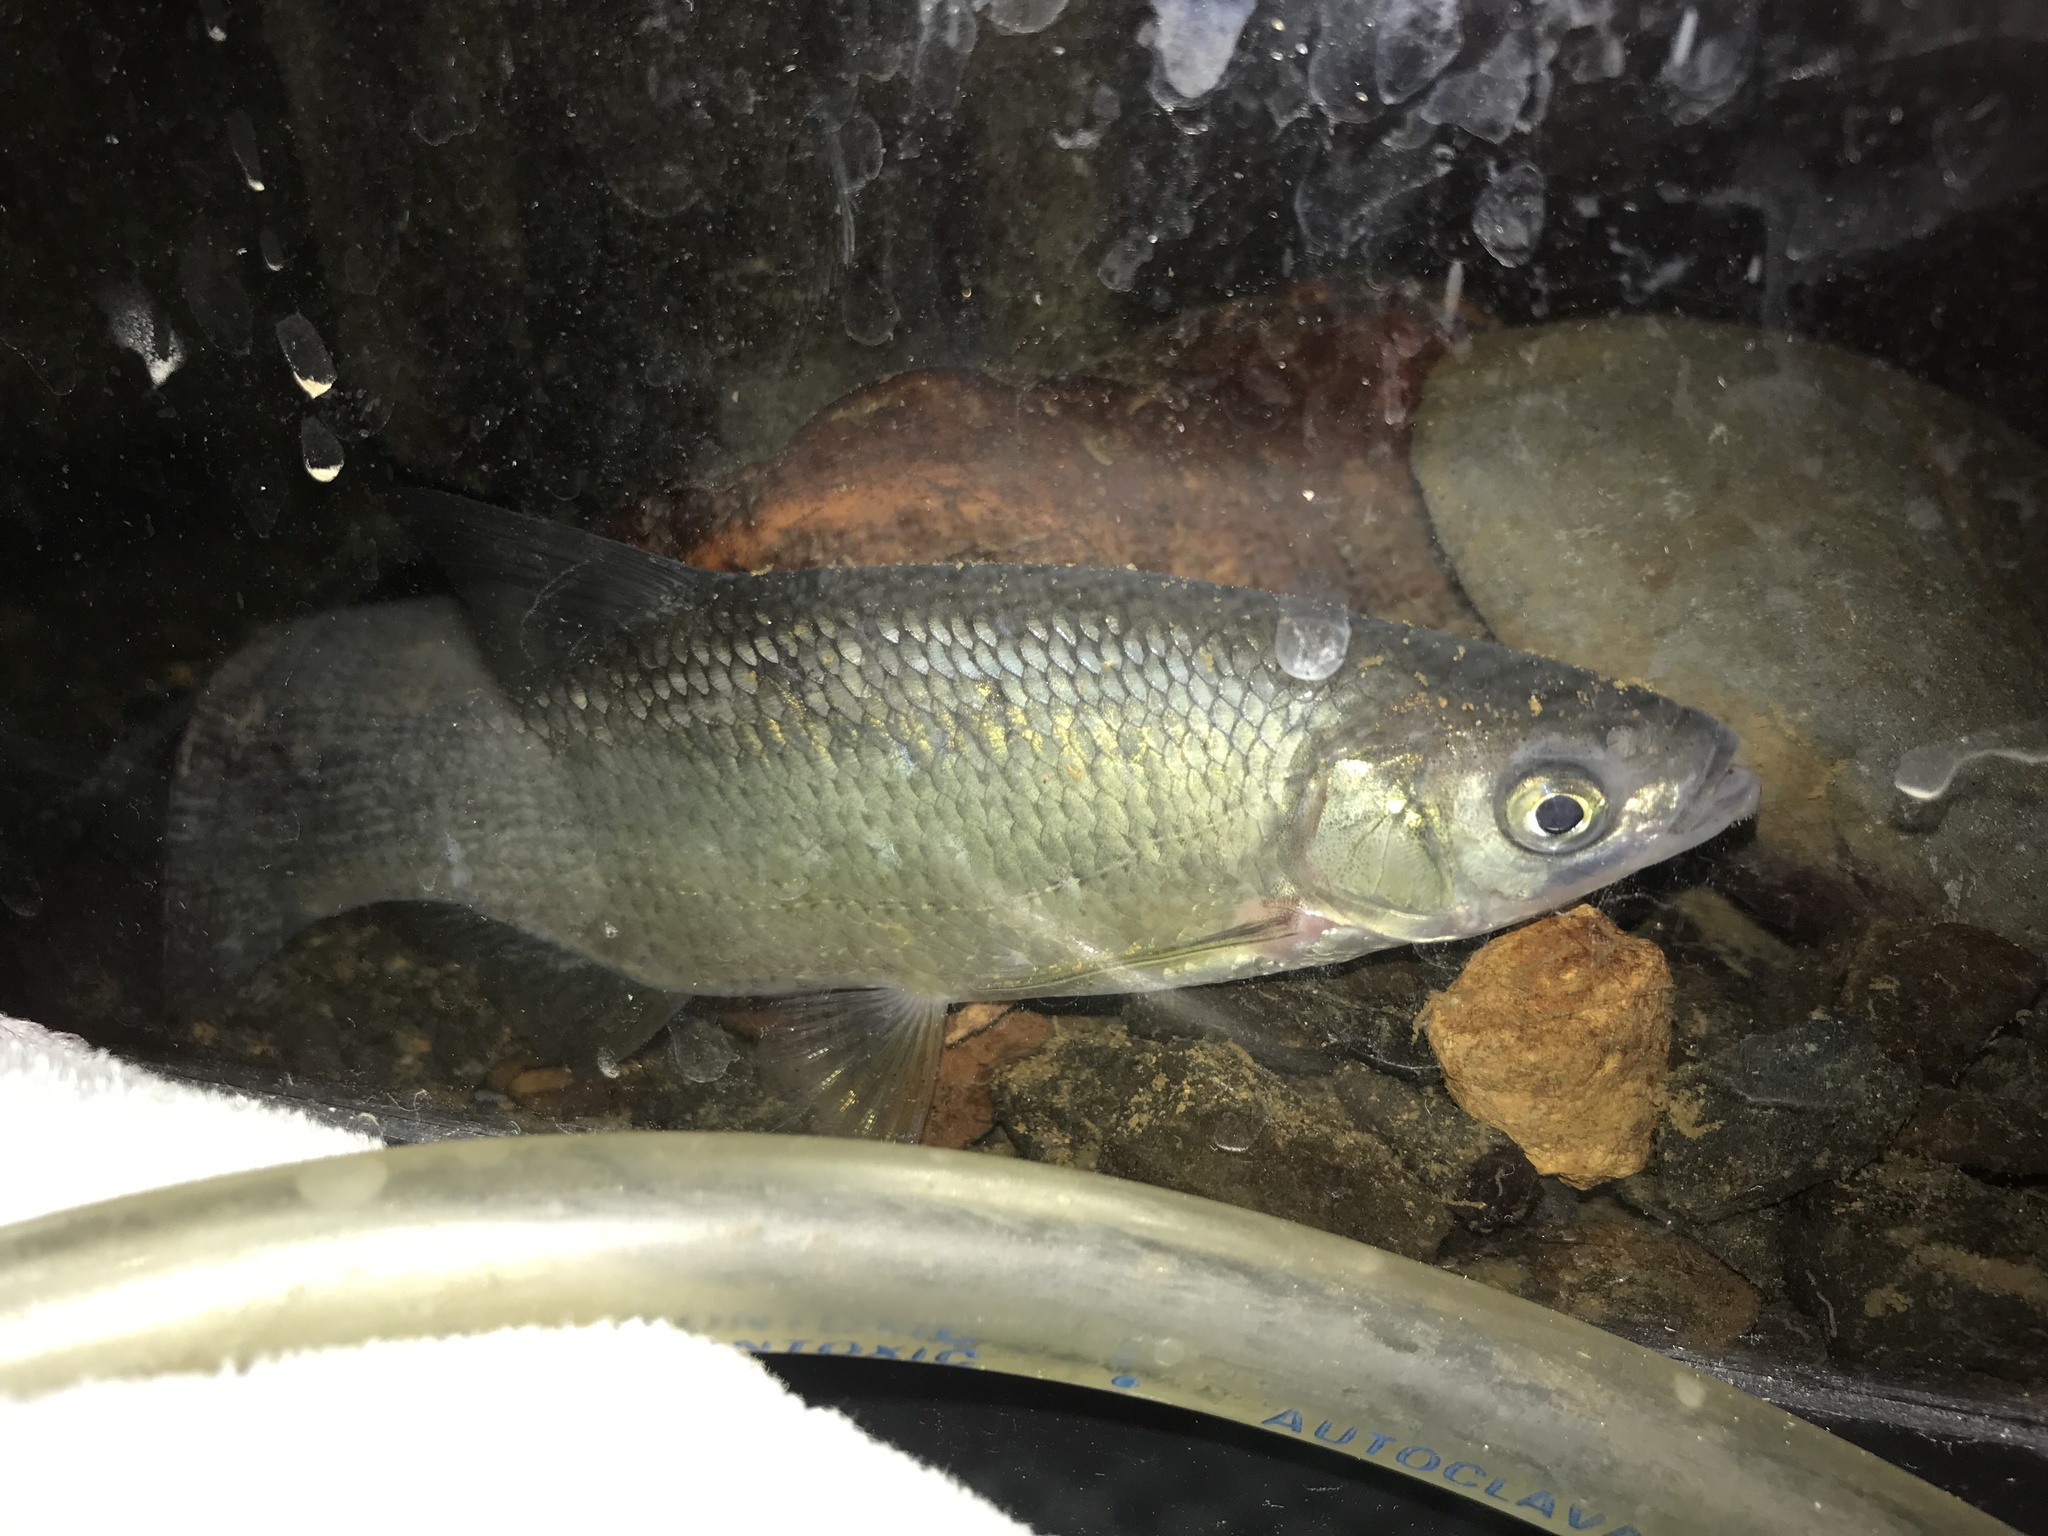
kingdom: Animalia
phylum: Chordata
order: Cypriniformes
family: Cyprinidae
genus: Notemigonus
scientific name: Notemigonus crysoleucas
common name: Golden shiner
